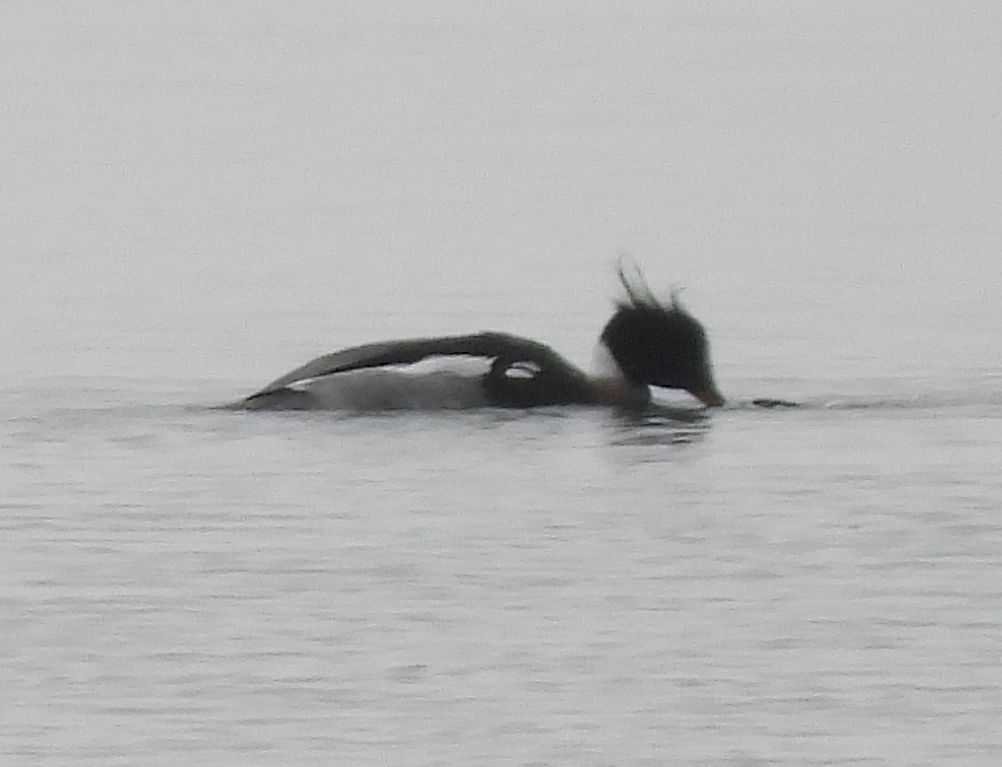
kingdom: Animalia
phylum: Chordata
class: Aves
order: Anseriformes
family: Anatidae
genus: Mergus
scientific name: Mergus serrator
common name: Red-breasted merganser
